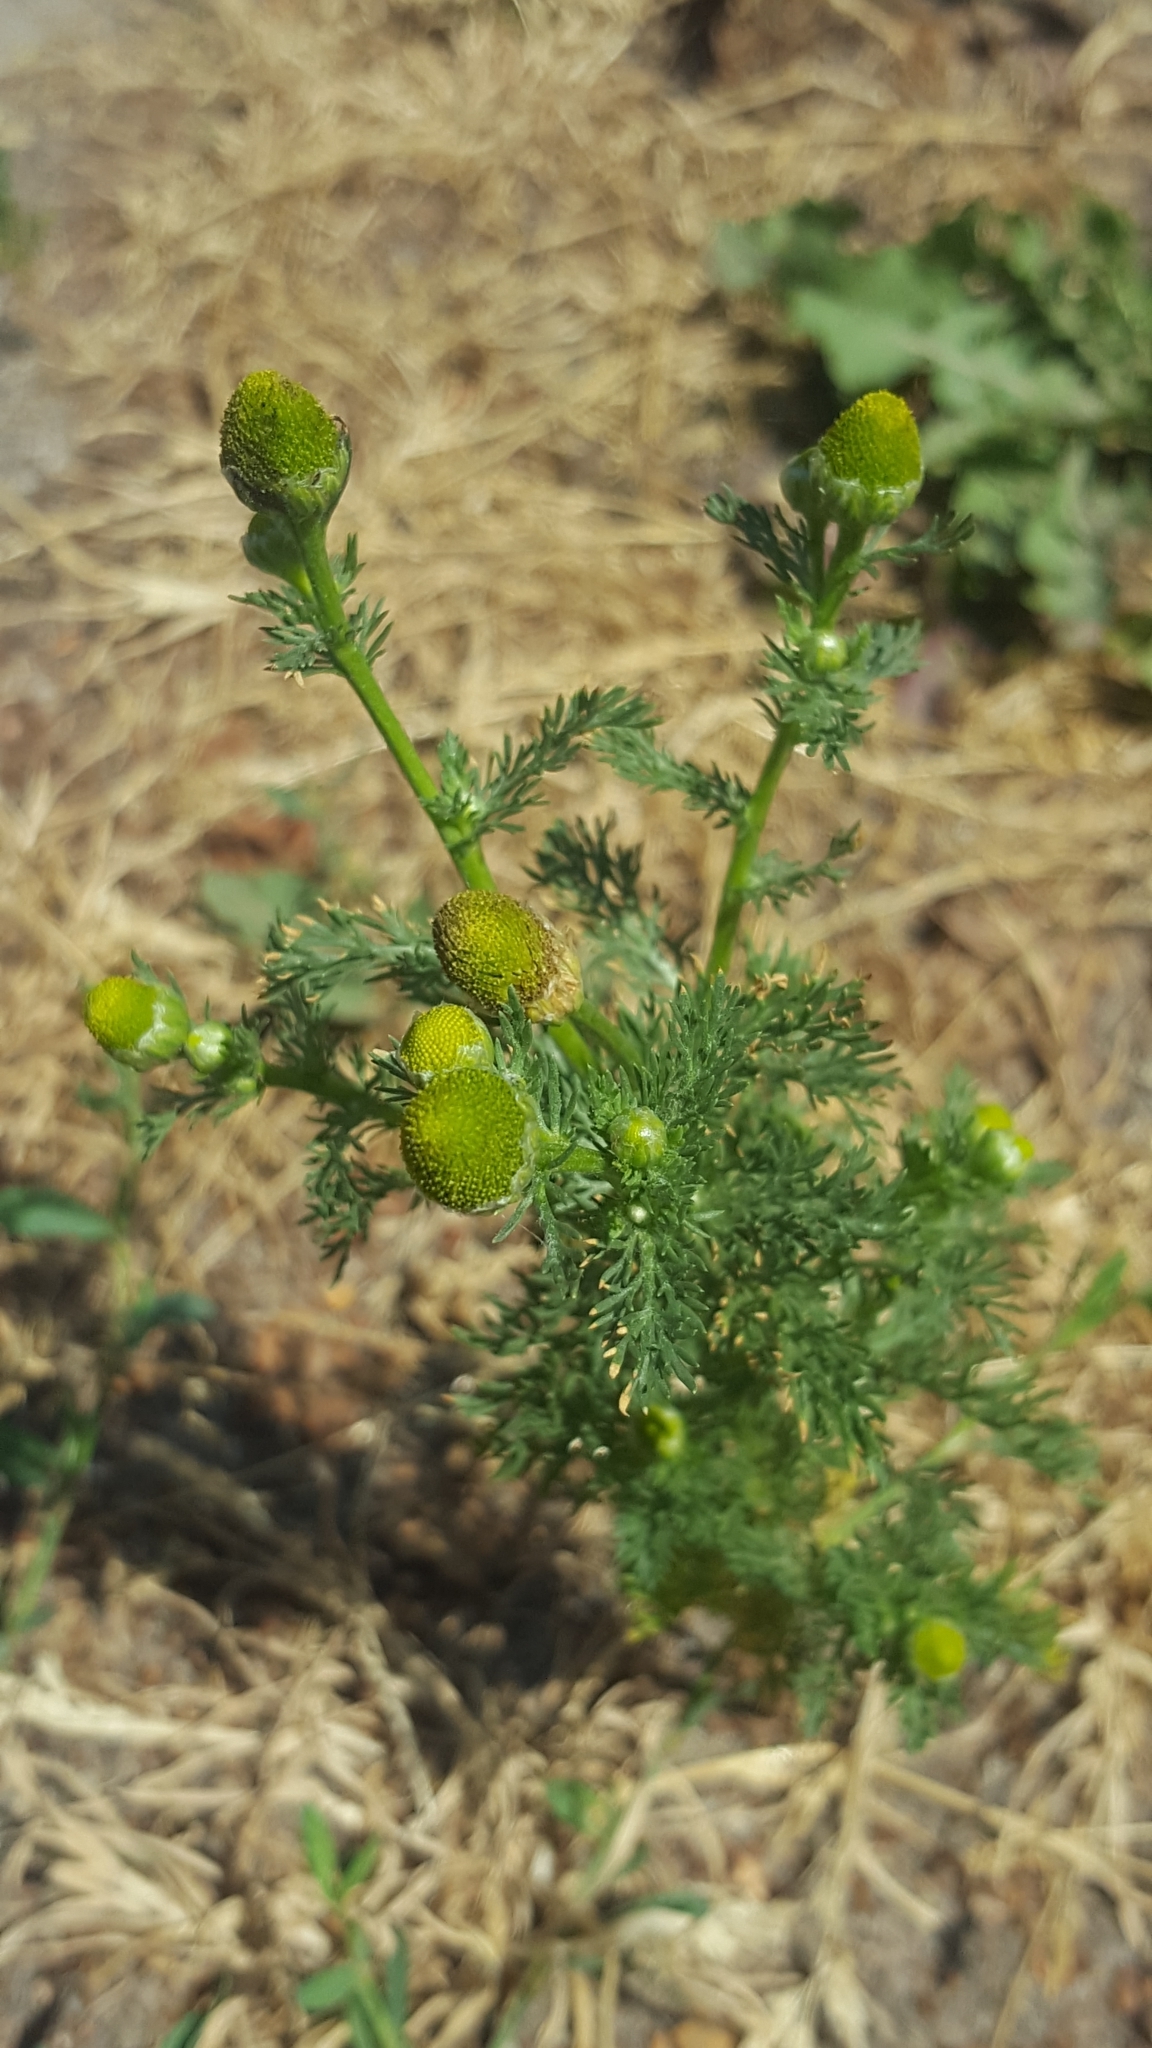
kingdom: Plantae
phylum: Tracheophyta
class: Magnoliopsida
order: Asterales
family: Asteraceae
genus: Matricaria
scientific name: Matricaria discoidea
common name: Disc mayweed
